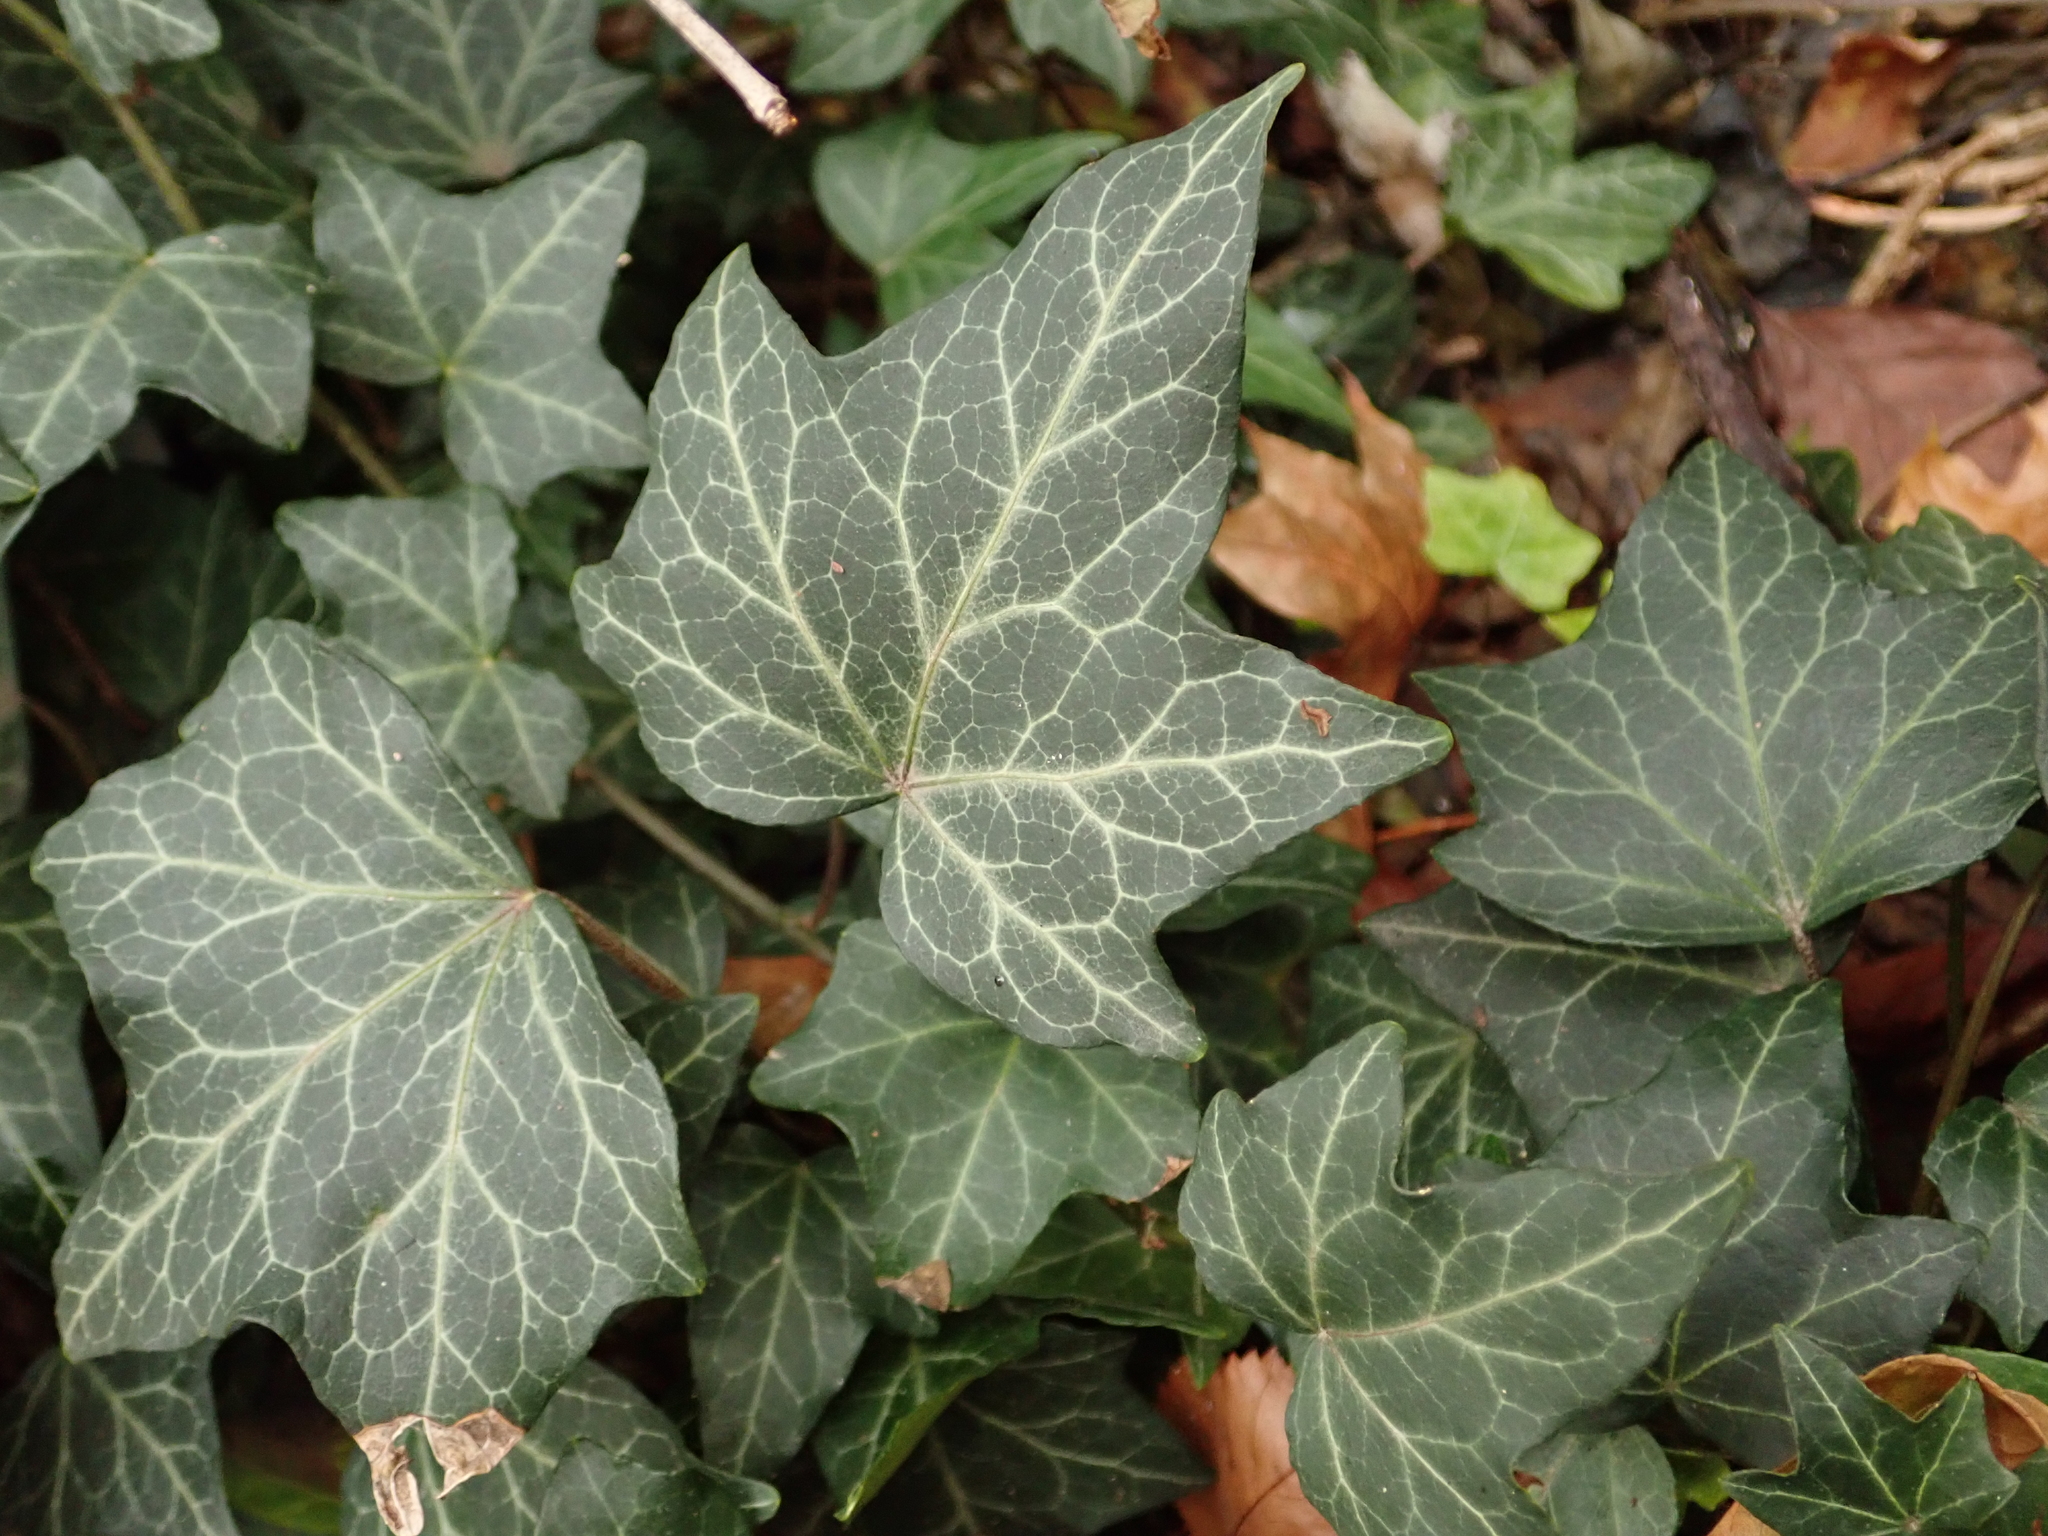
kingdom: Plantae
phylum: Tracheophyta
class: Magnoliopsida
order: Apiales
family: Araliaceae
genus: Hedera
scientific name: Hedera helix
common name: Ivy
